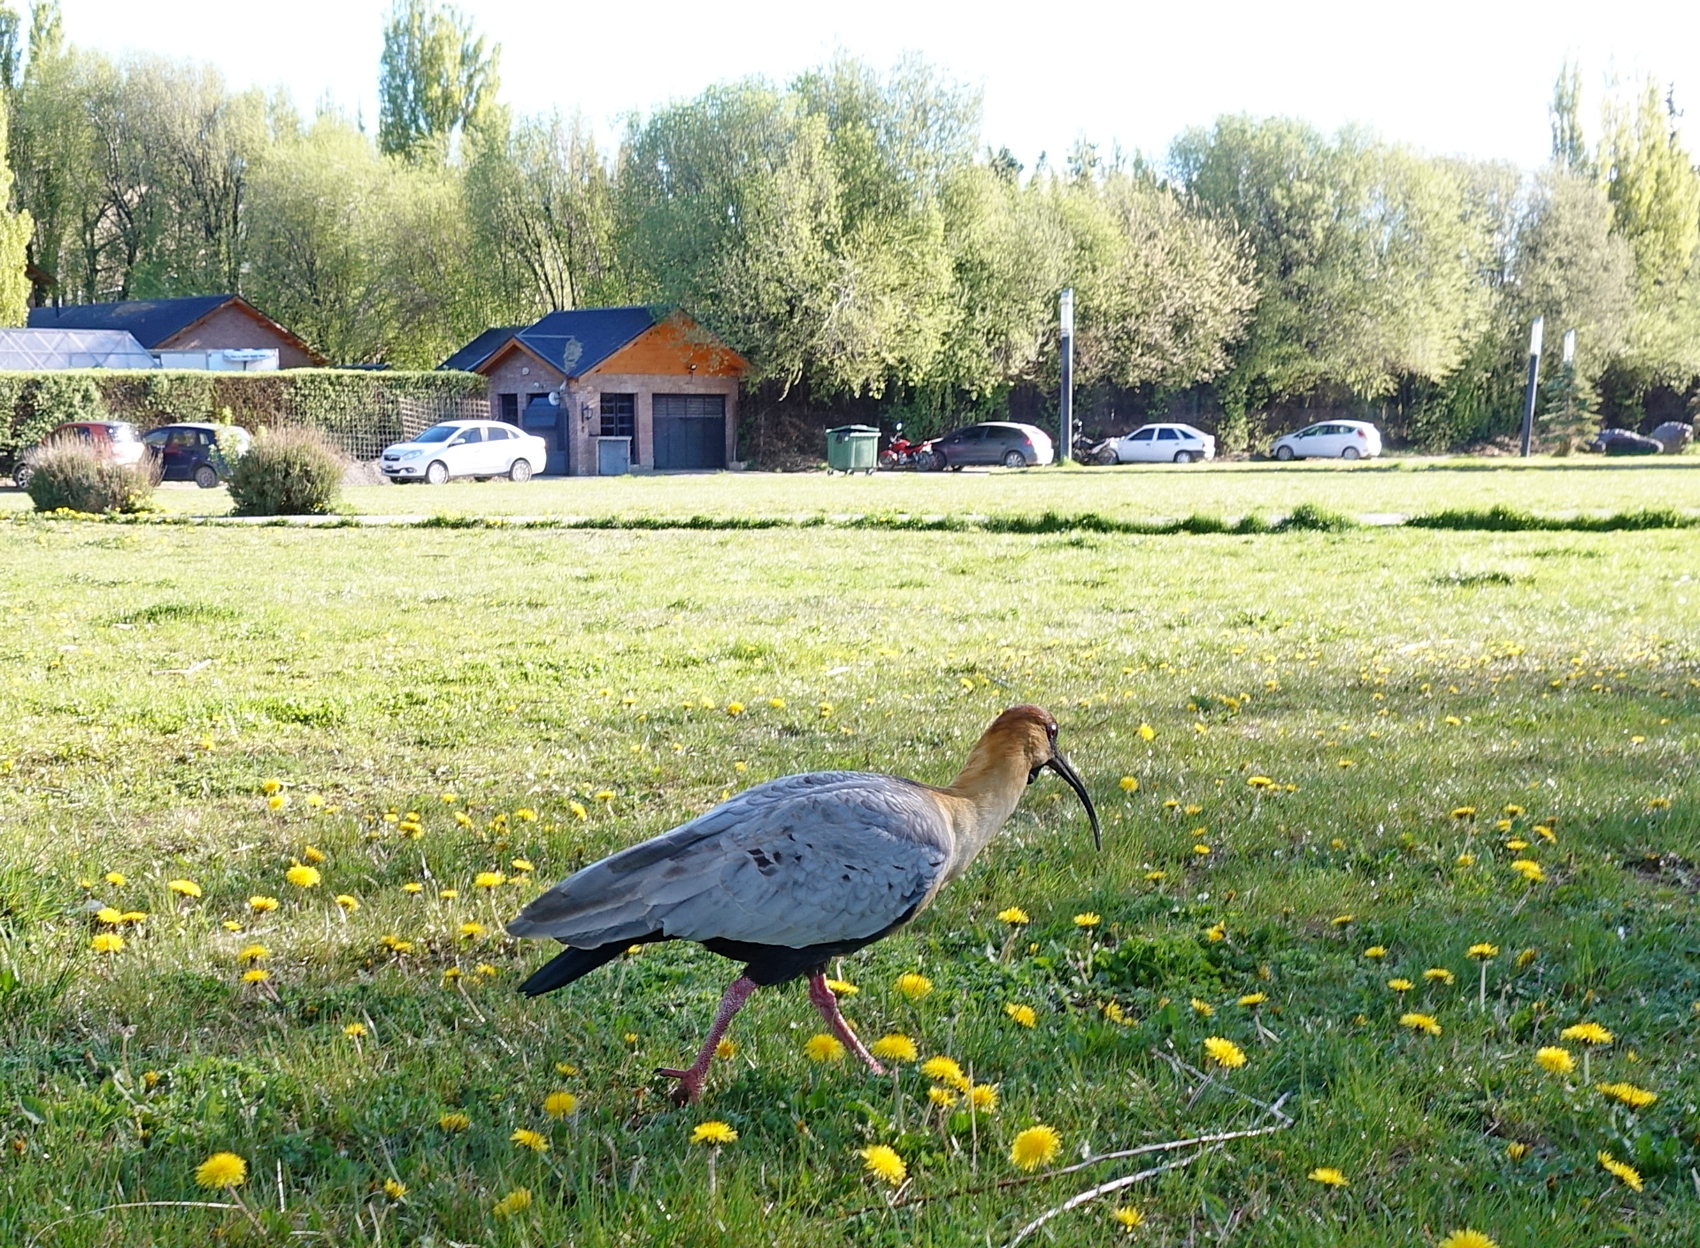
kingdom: Animalia
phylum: Chordata
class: Aves
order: Pelecaniformes
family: Threskiornithidae
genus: Theristicus
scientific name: Theristicus melanopis
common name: Black-faced ibis
